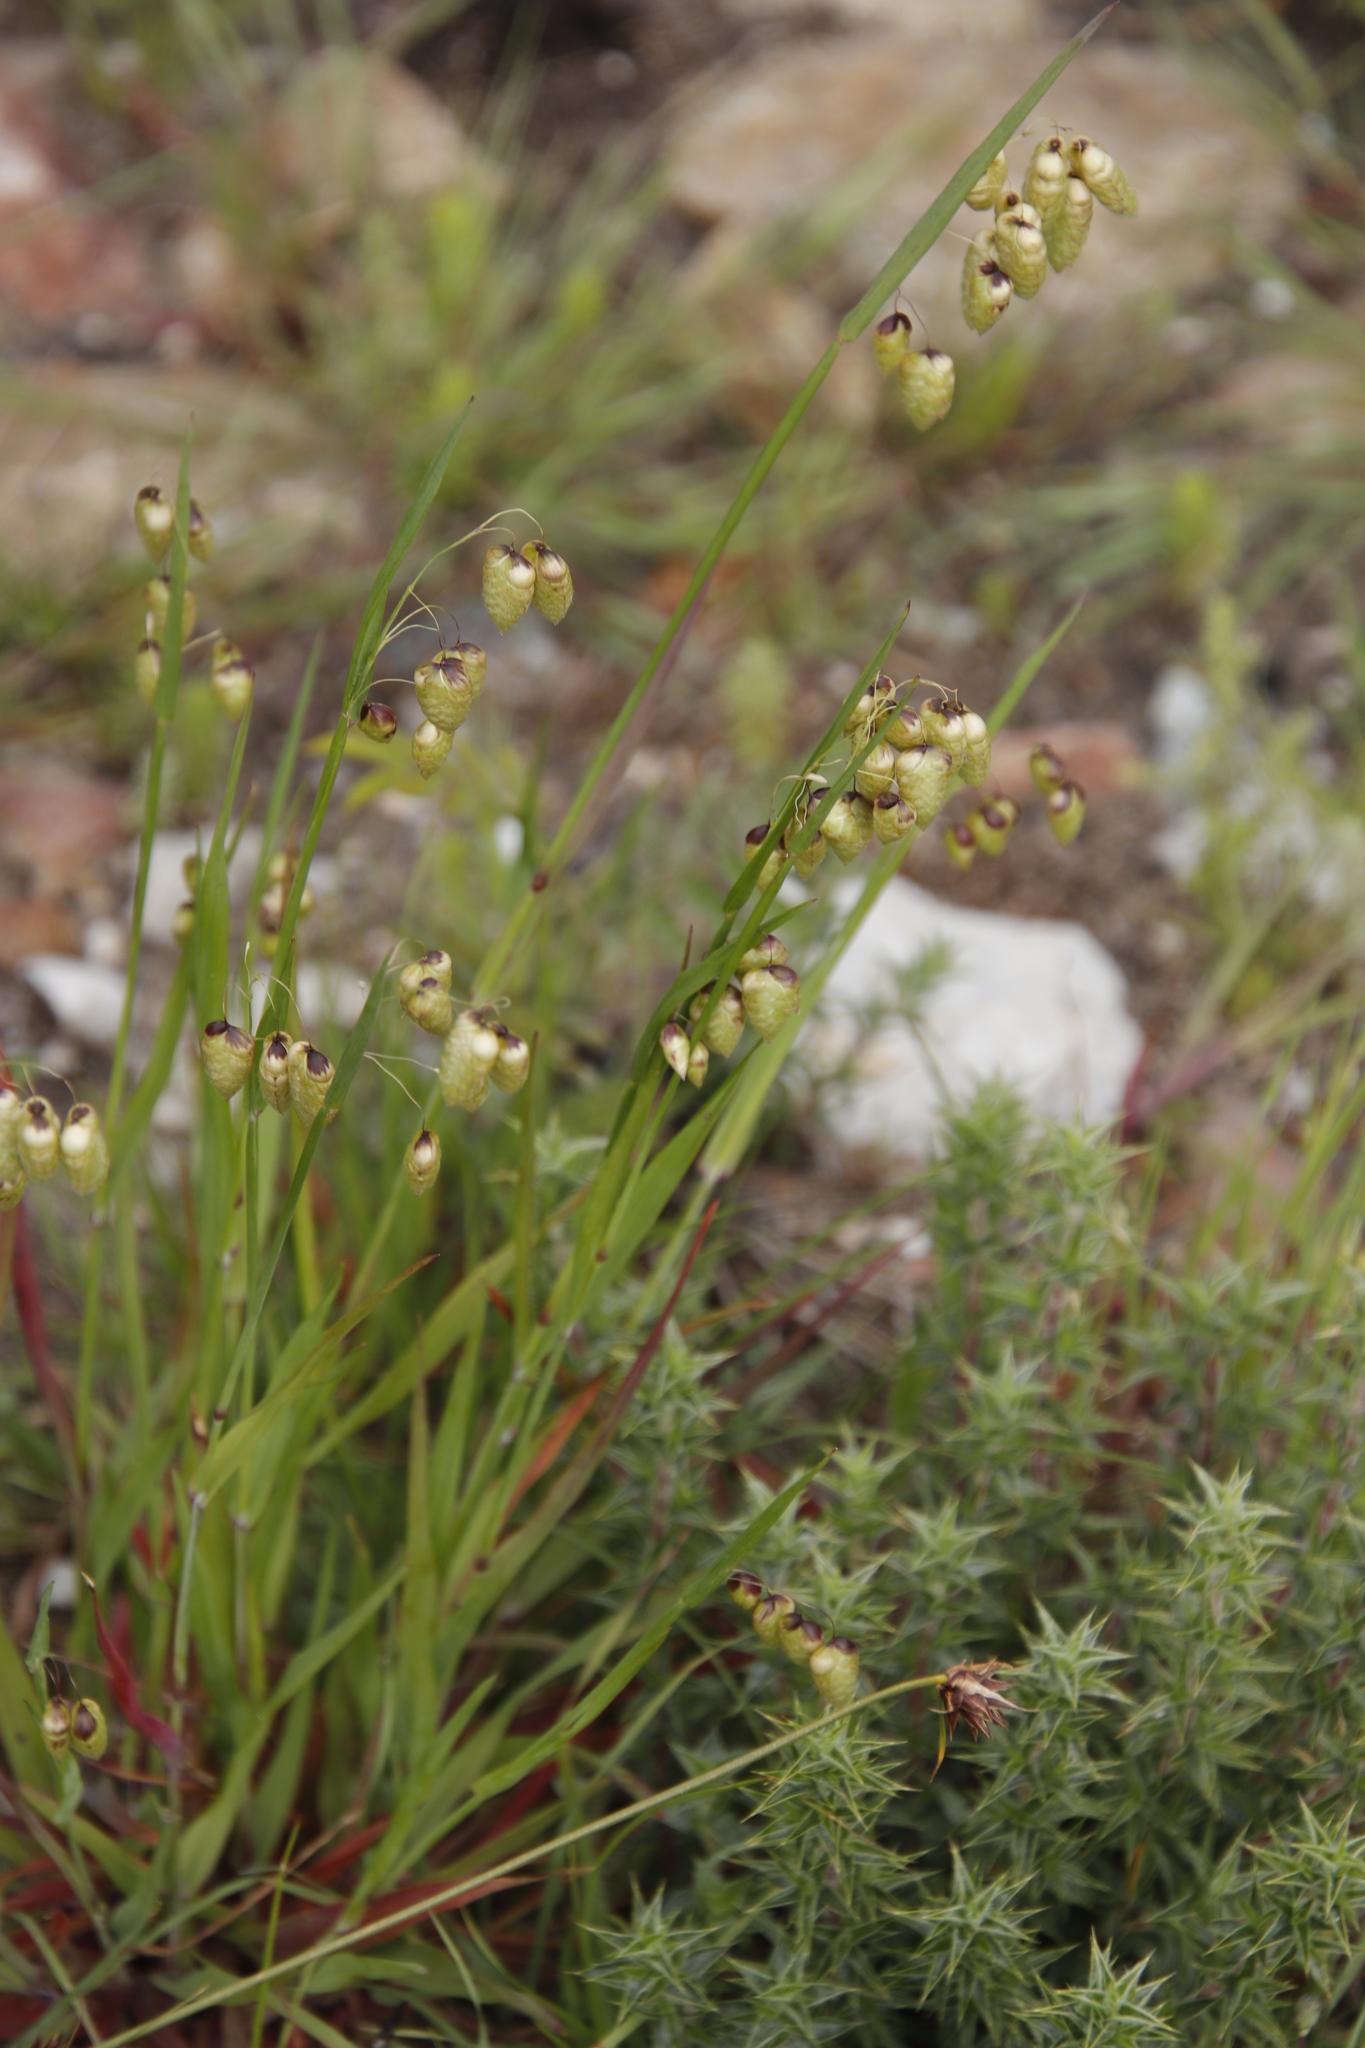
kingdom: Plantae
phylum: Tracheophyta
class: Liliopsida
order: Poales
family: Poaceae
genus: Briza
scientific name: Briza maxima
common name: Big quakinggrass
